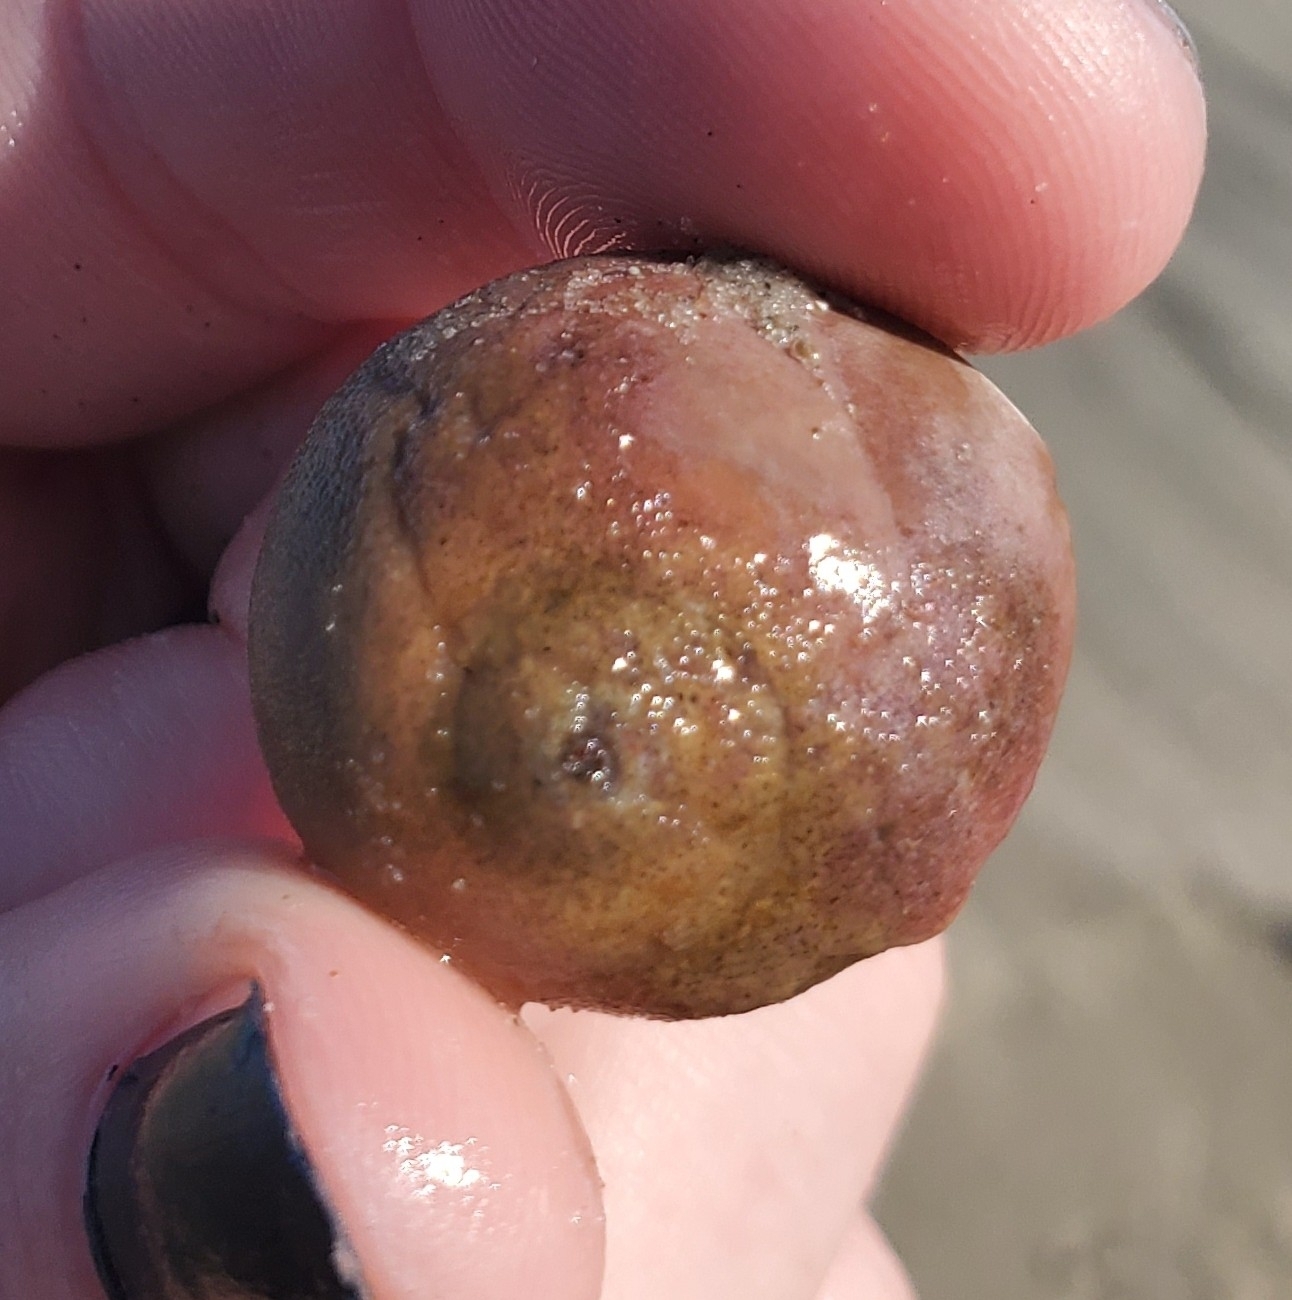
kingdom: Animalia
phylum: Mollusca
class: Gastropoda
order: Littorinimorpha
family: Naticidae
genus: Neverita
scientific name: Neverita duplicata
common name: Lobed moonsnail
